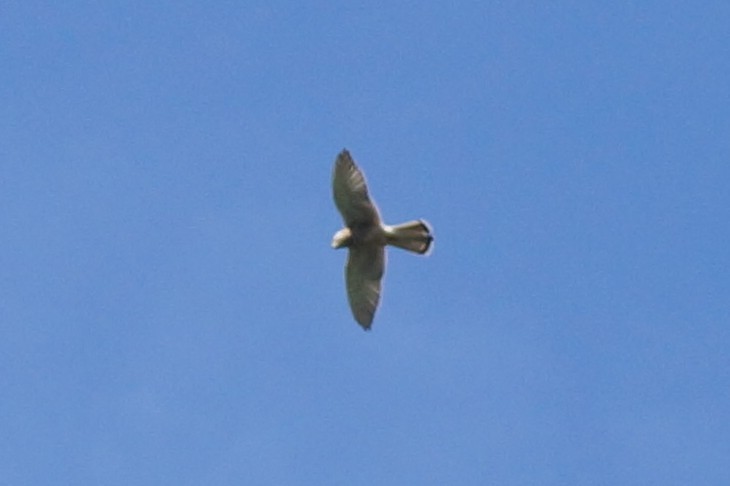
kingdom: Animalia
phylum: Chordata
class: Aves
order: Falconiformes
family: Falconidae
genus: Falco
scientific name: Falco tinnunculus
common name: Common kestrel
